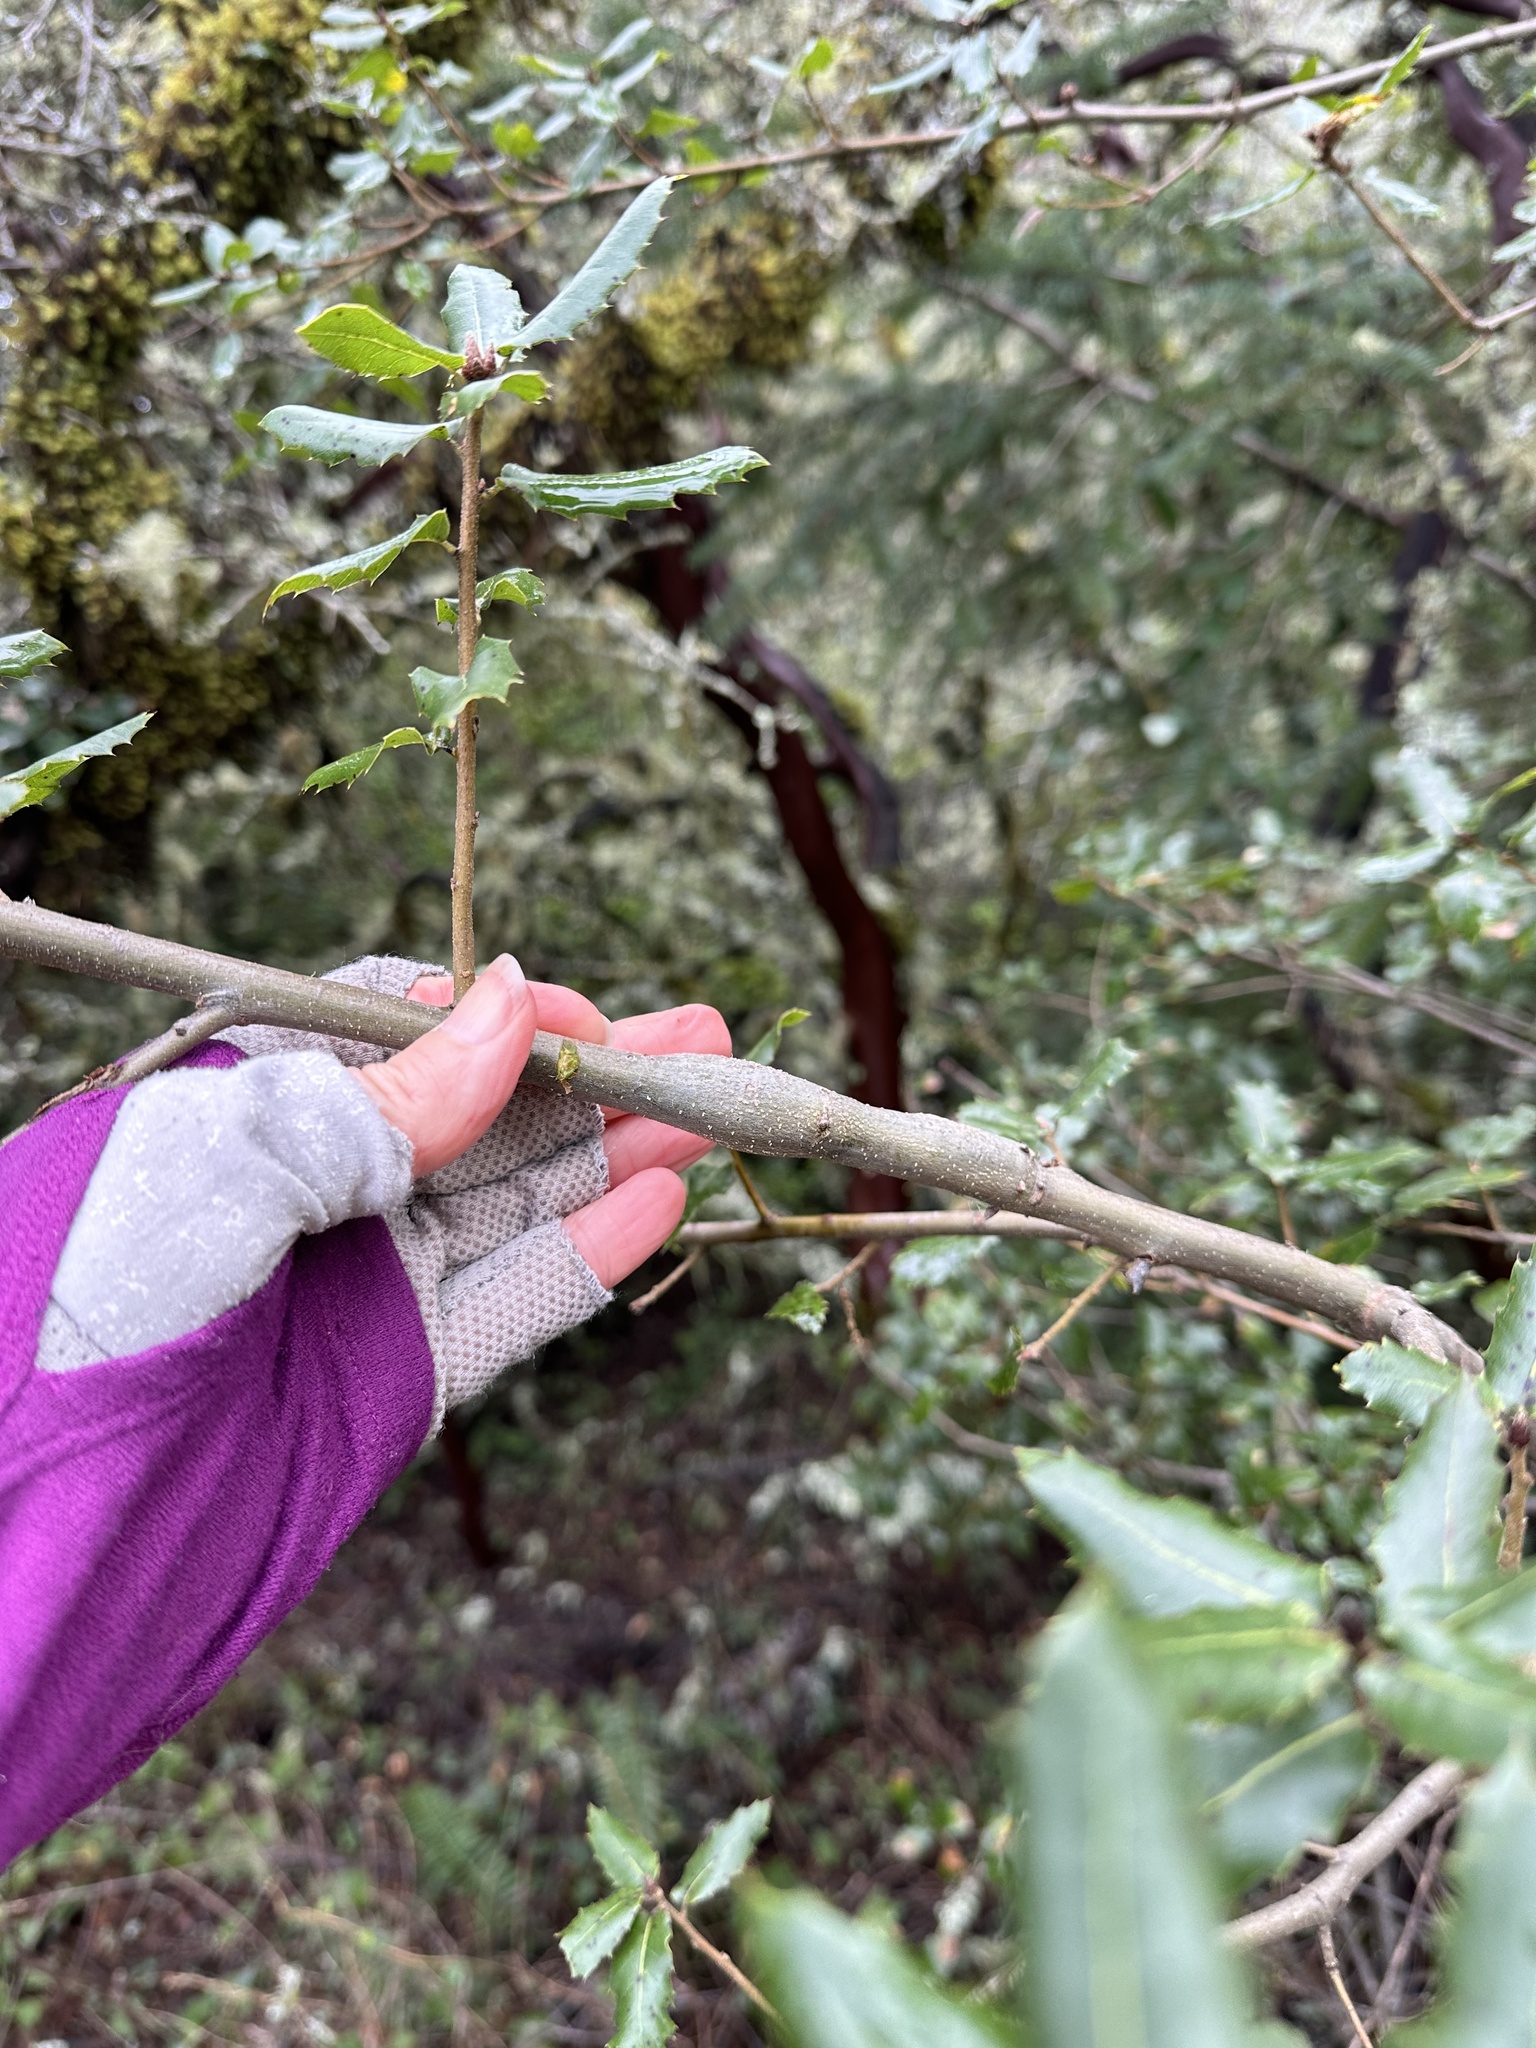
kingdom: Animalia
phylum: Arthropoda
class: Insecta
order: Hymenoptera
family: Cynipidae
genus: Callirhytis
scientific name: Callirhytis
